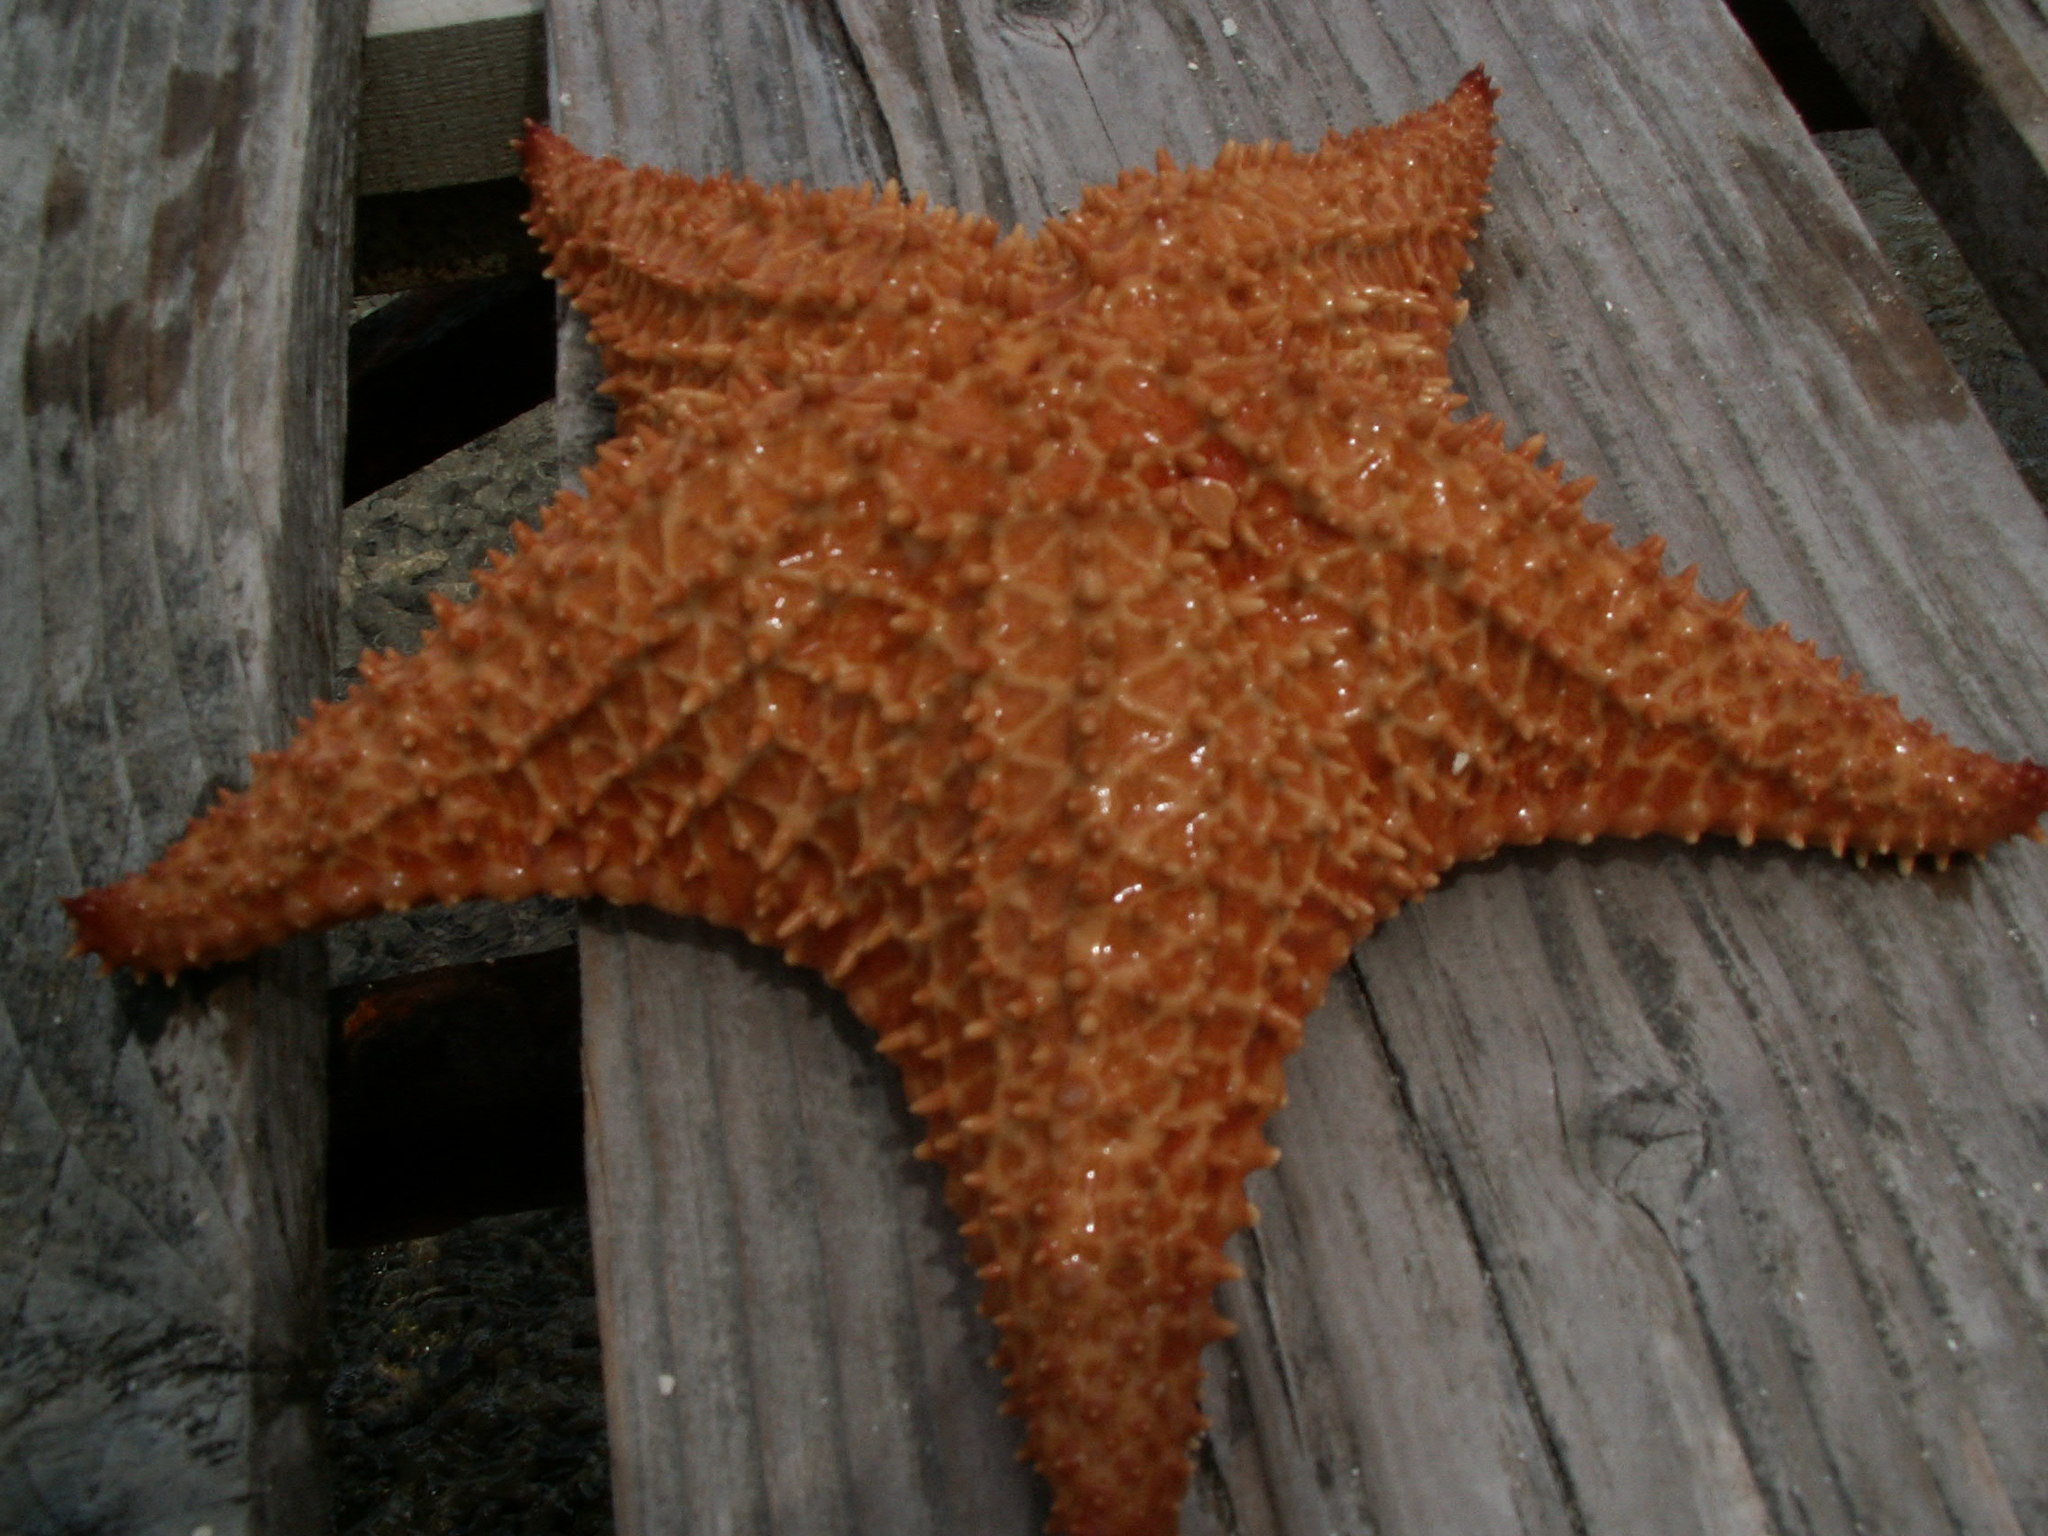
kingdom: Animalia
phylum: Echinodermata
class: Asteroidea
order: Valvatida
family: Oreasteridae
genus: Oreaster
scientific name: Oreaster reticulatus
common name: Cushion sea star
